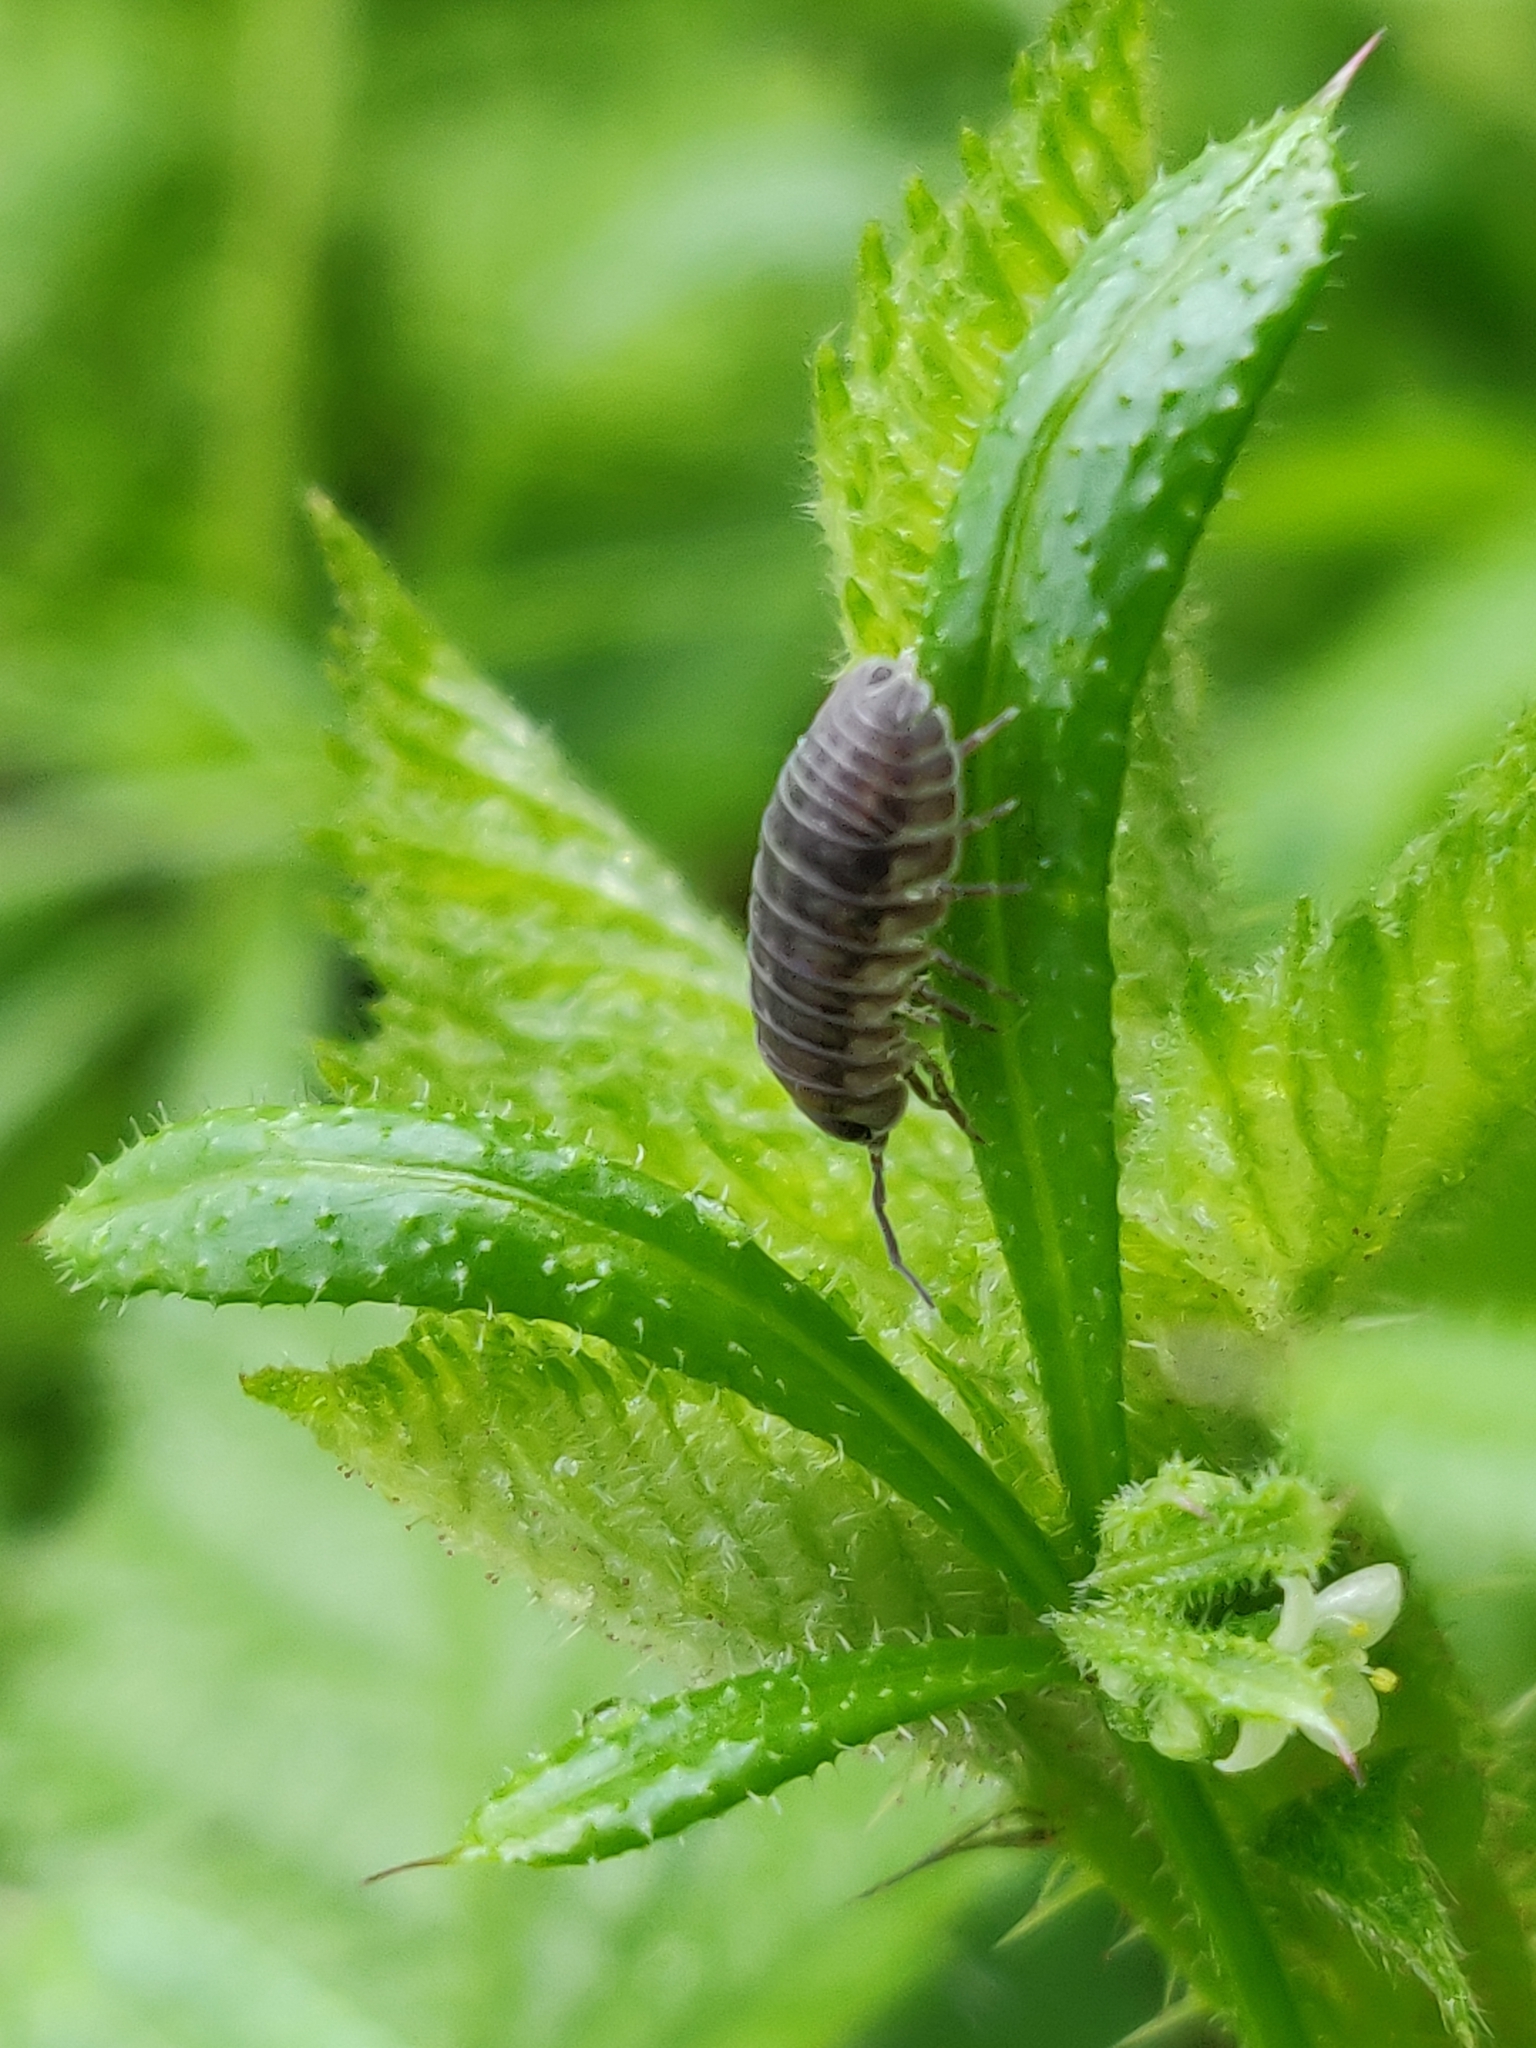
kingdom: Animalia
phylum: Arthropoda
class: Malacostraca
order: Isopoda
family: Armadillidiidae
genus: Armadillidium
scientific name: Armadillidium nasatum
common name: Isopod
